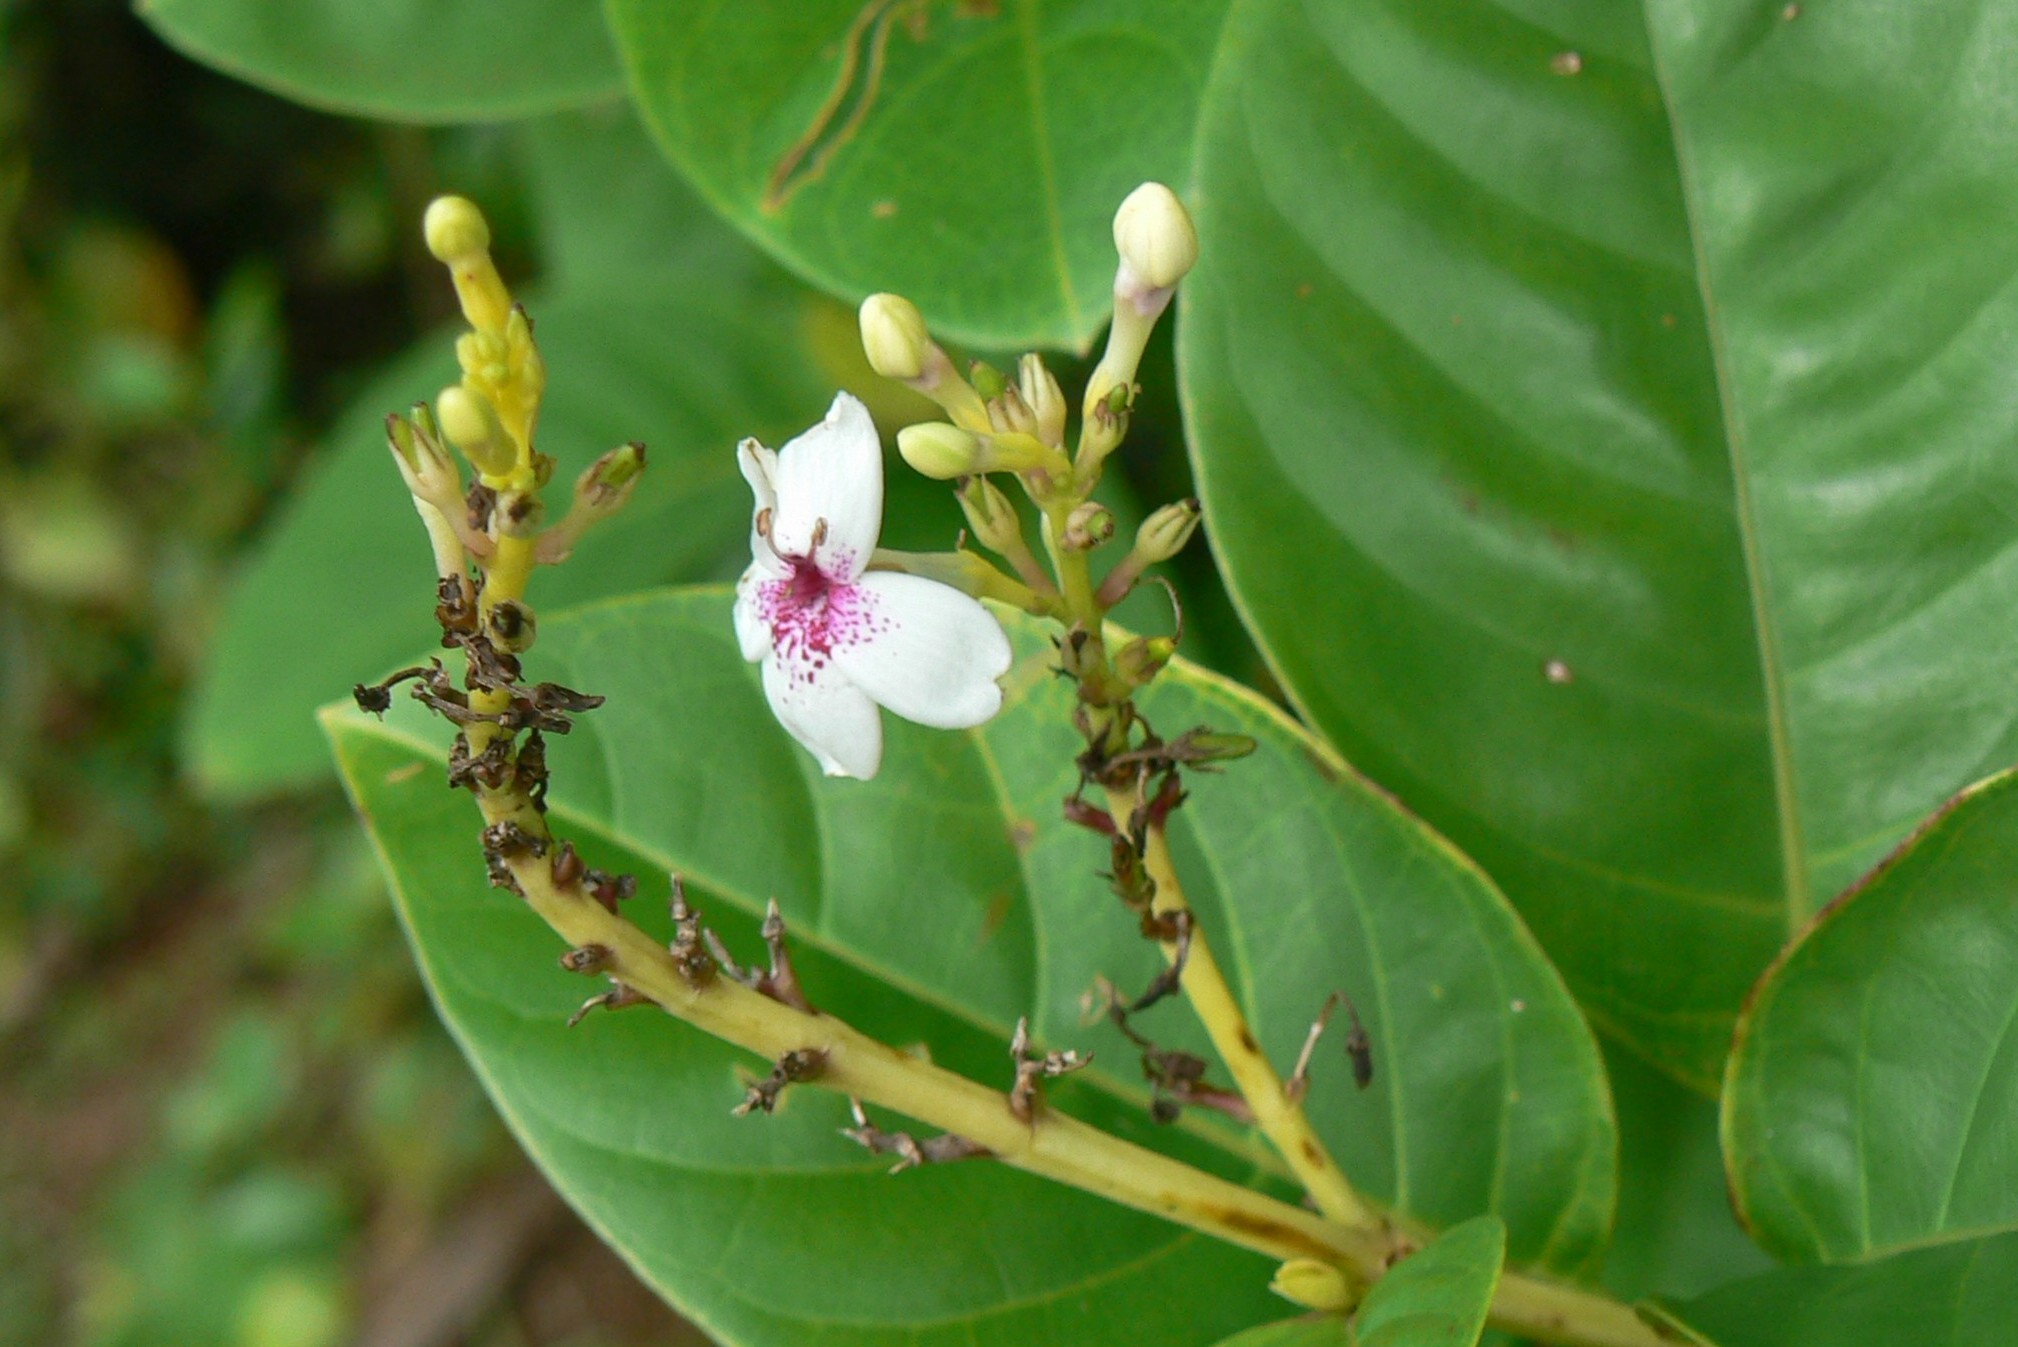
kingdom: Plantae
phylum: Tracheophyta
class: Magnoliopsida
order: Lamiales
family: Acanthaceae
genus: Pseuderanthemum
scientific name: Pseuderanthemum maculatum
